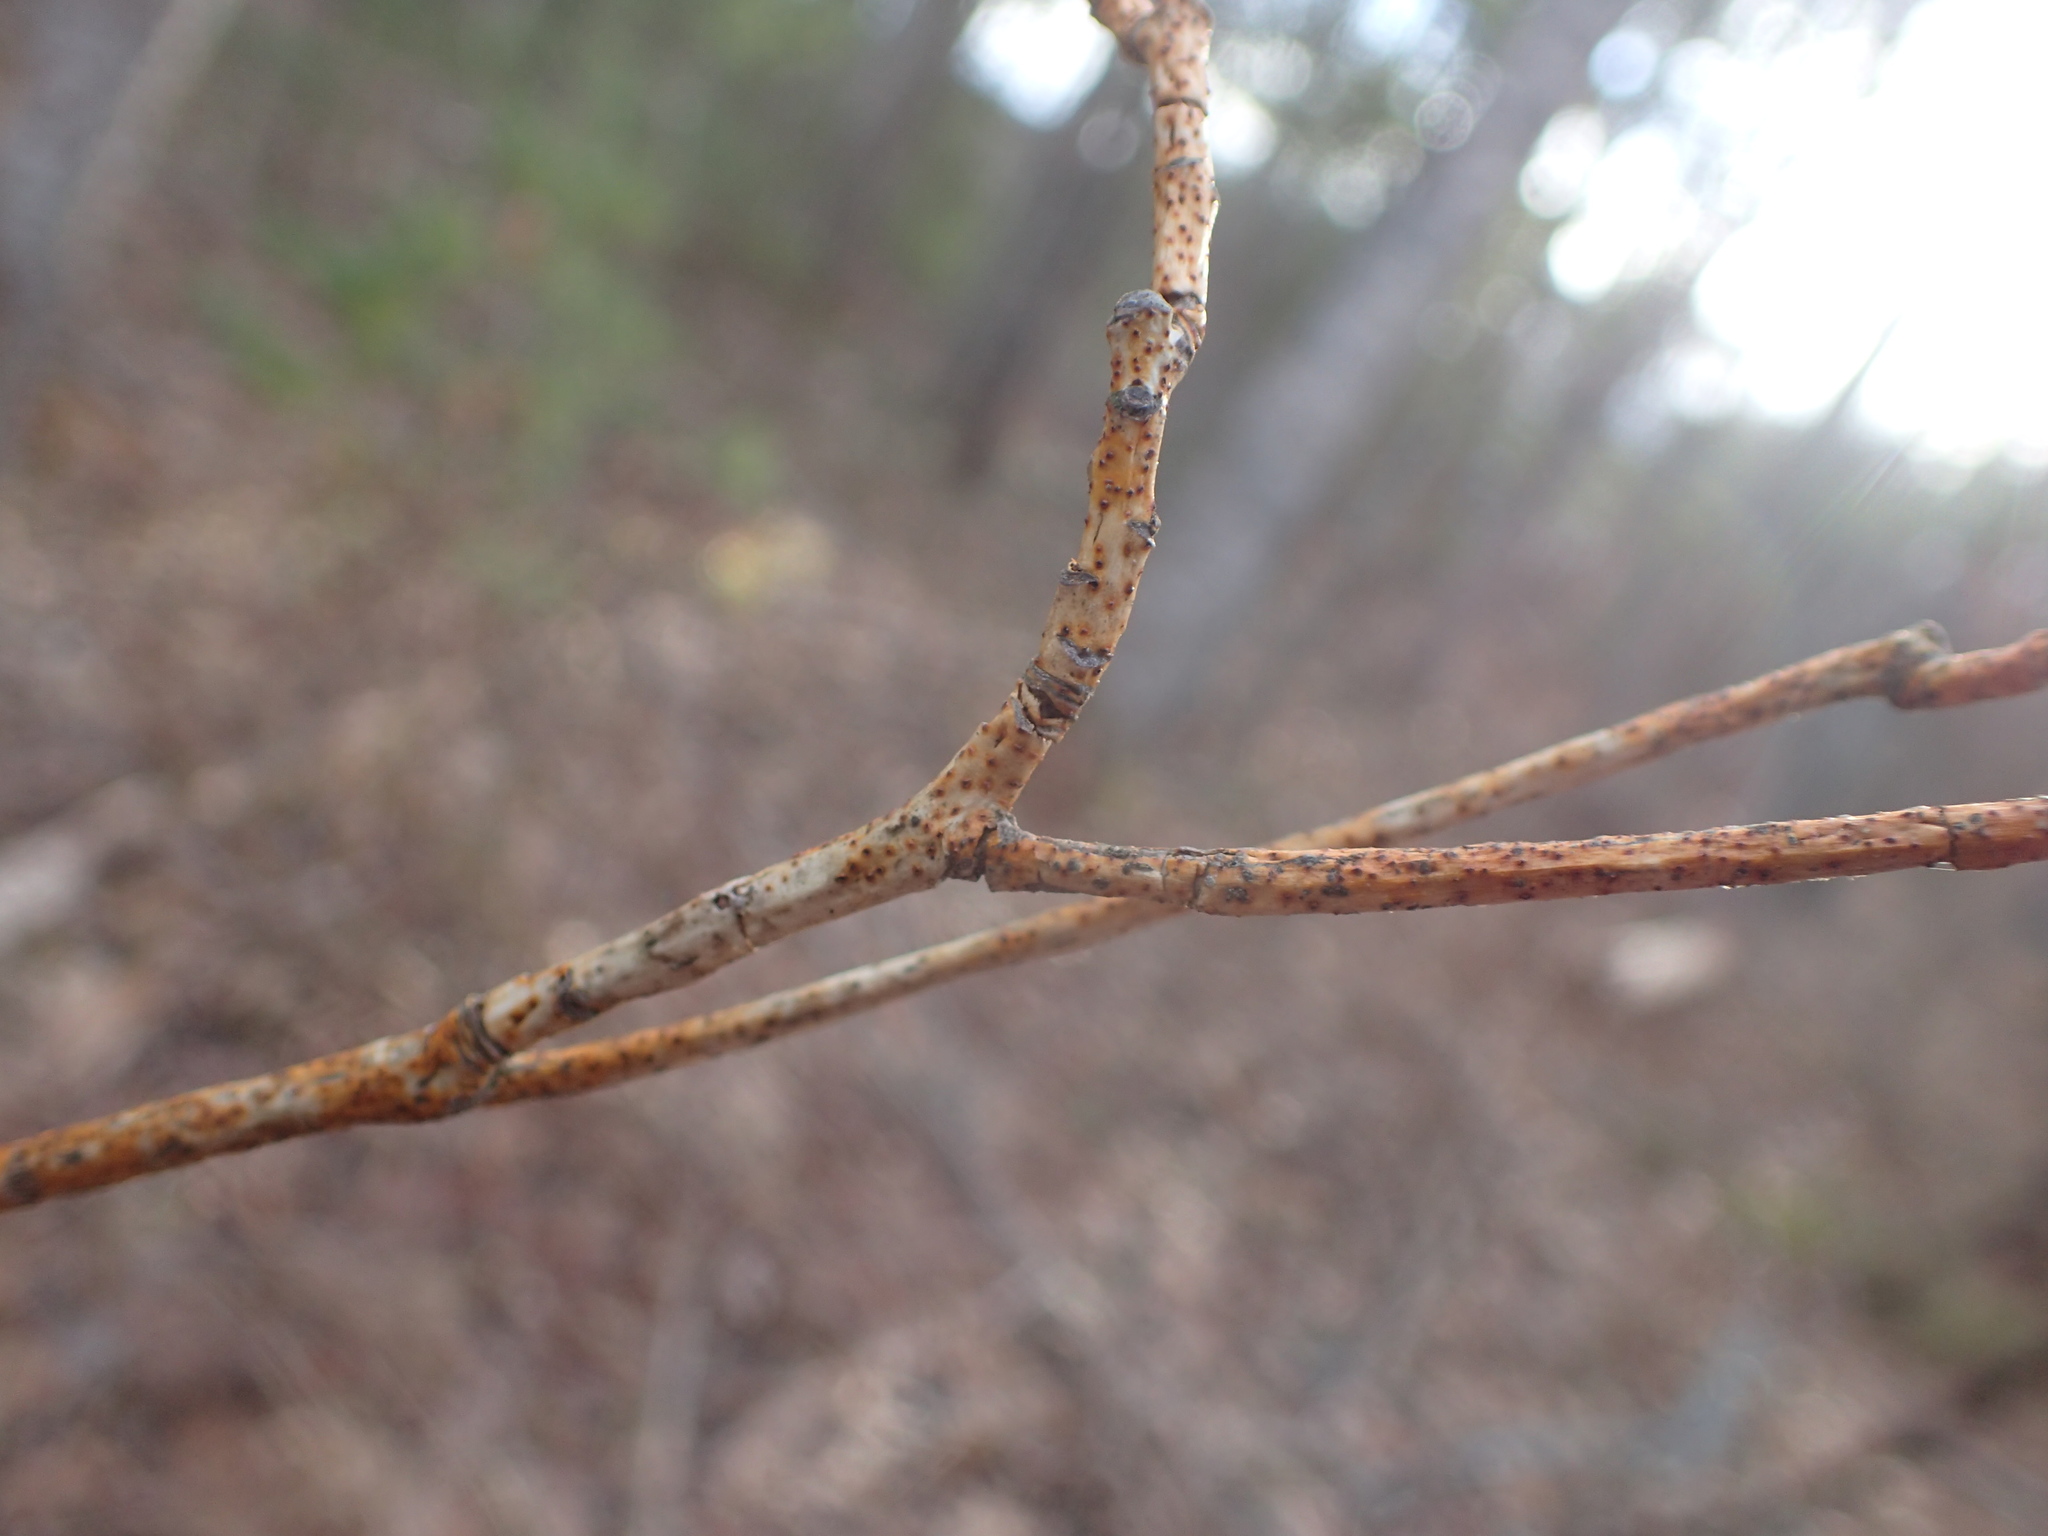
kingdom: Fungi
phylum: Ascomycota
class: Sordariomycetes
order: Diaporthales
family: Cryphonectriaceae
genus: Aurantioporthe
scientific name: Aurantioporthe corni
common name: Dogwood golden canker
